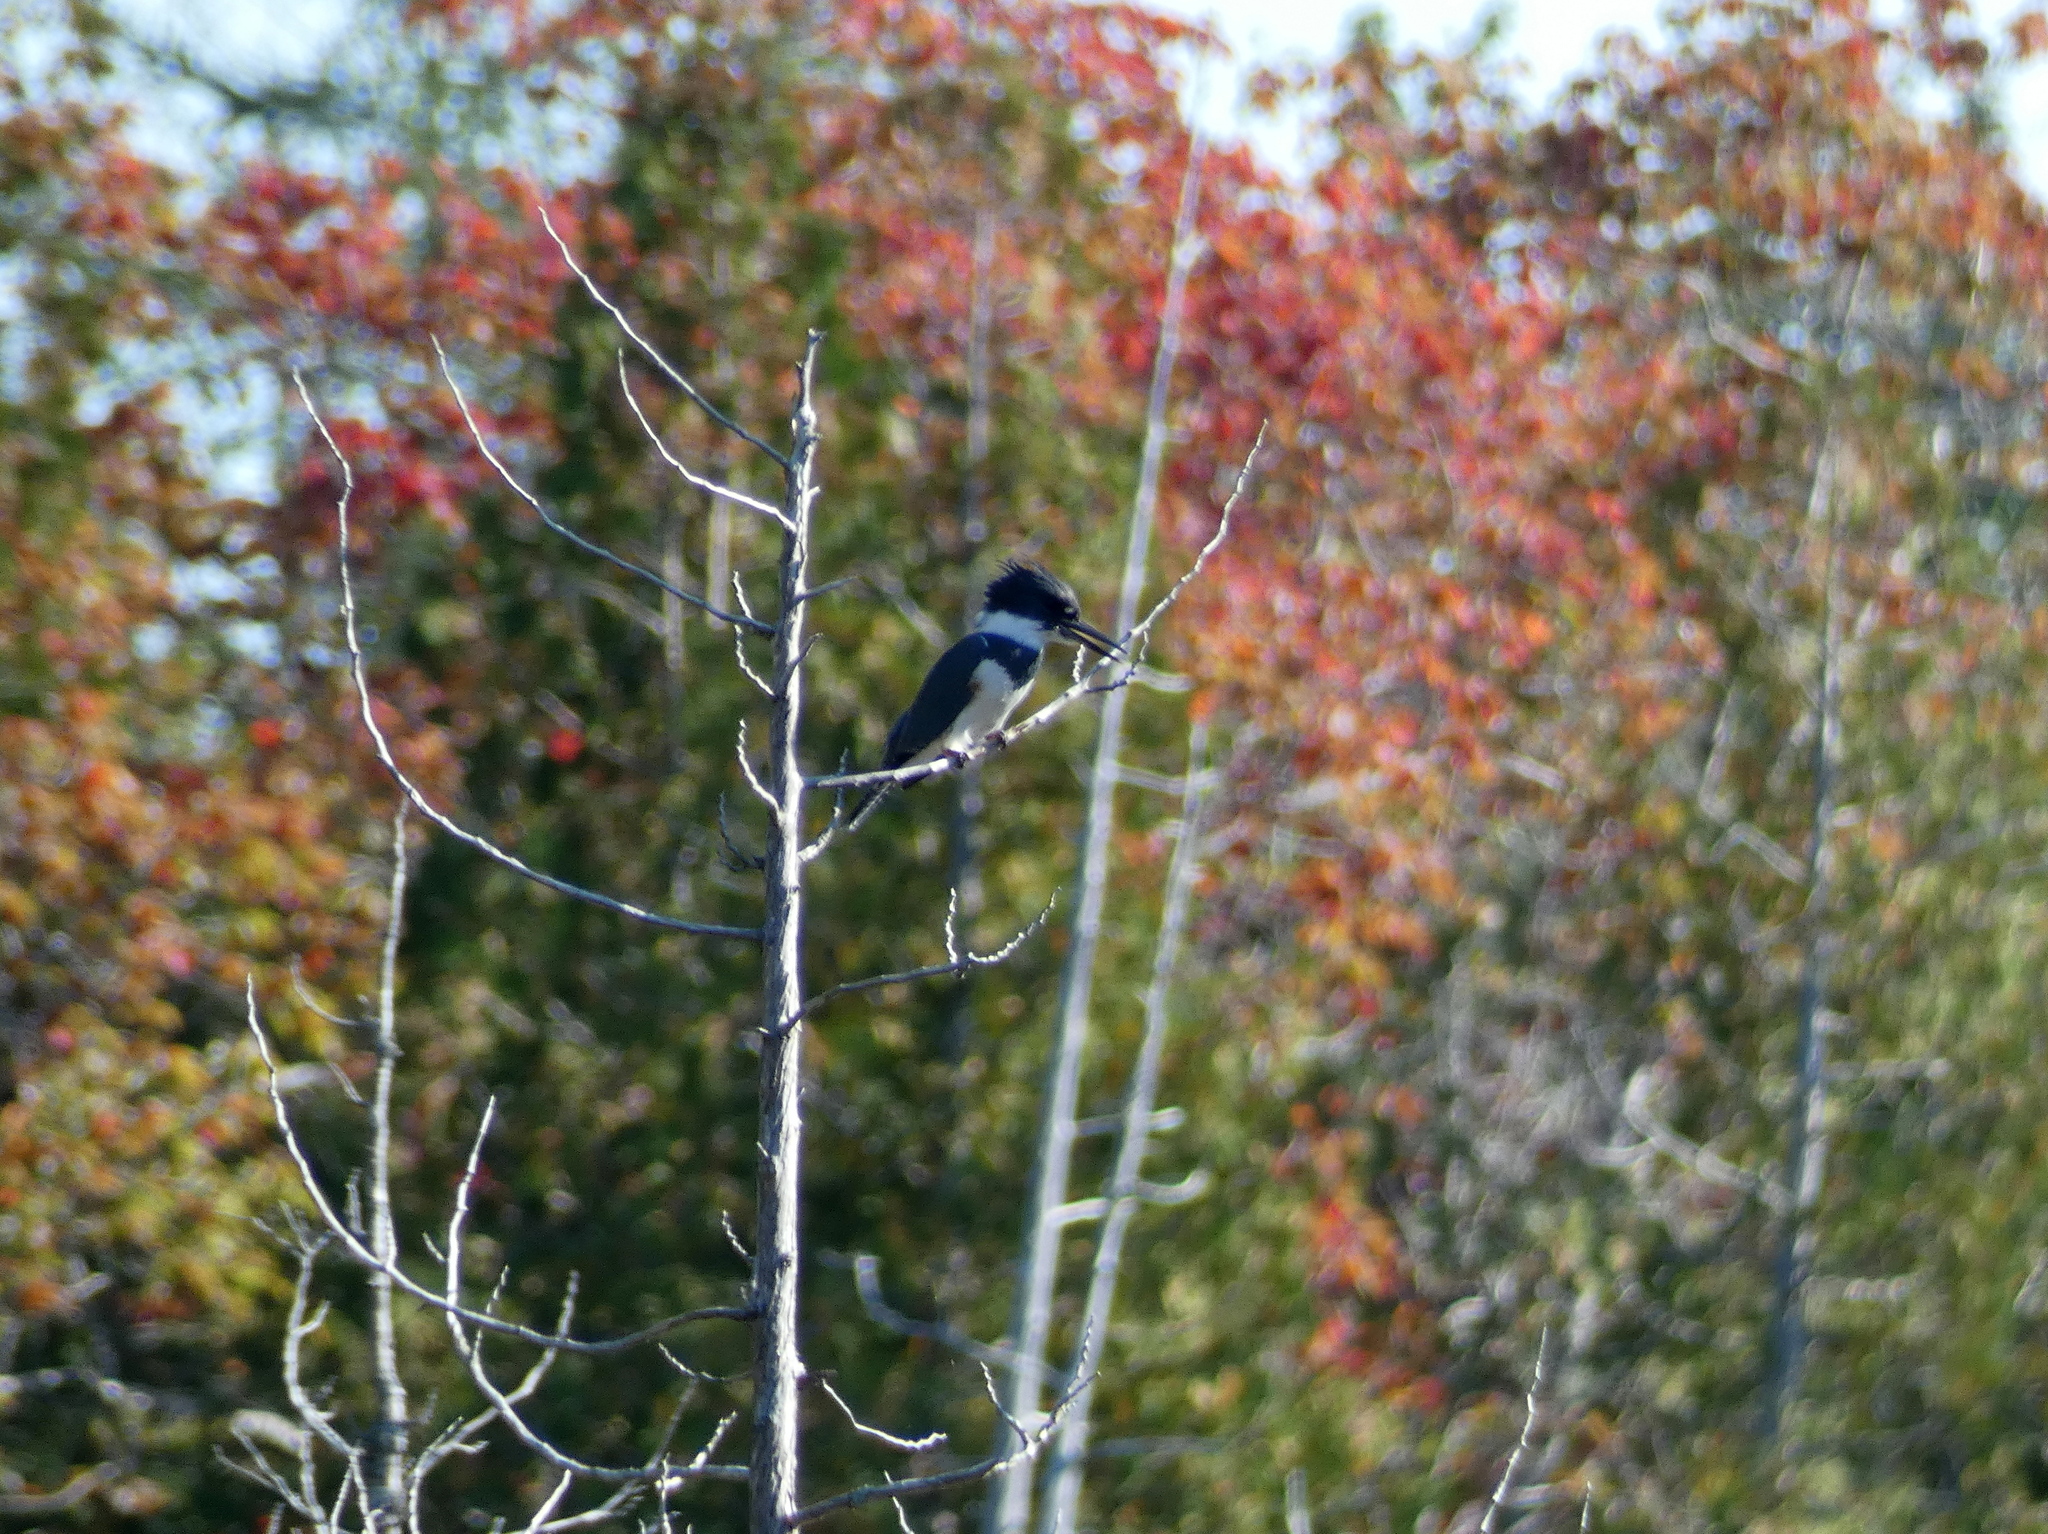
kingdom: Animalia
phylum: Chordata
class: Aves
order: Coraciiformes
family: Alcedinidae
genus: Megaceryle
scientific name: Megaceryle alcyon
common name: Belted kingfisher
